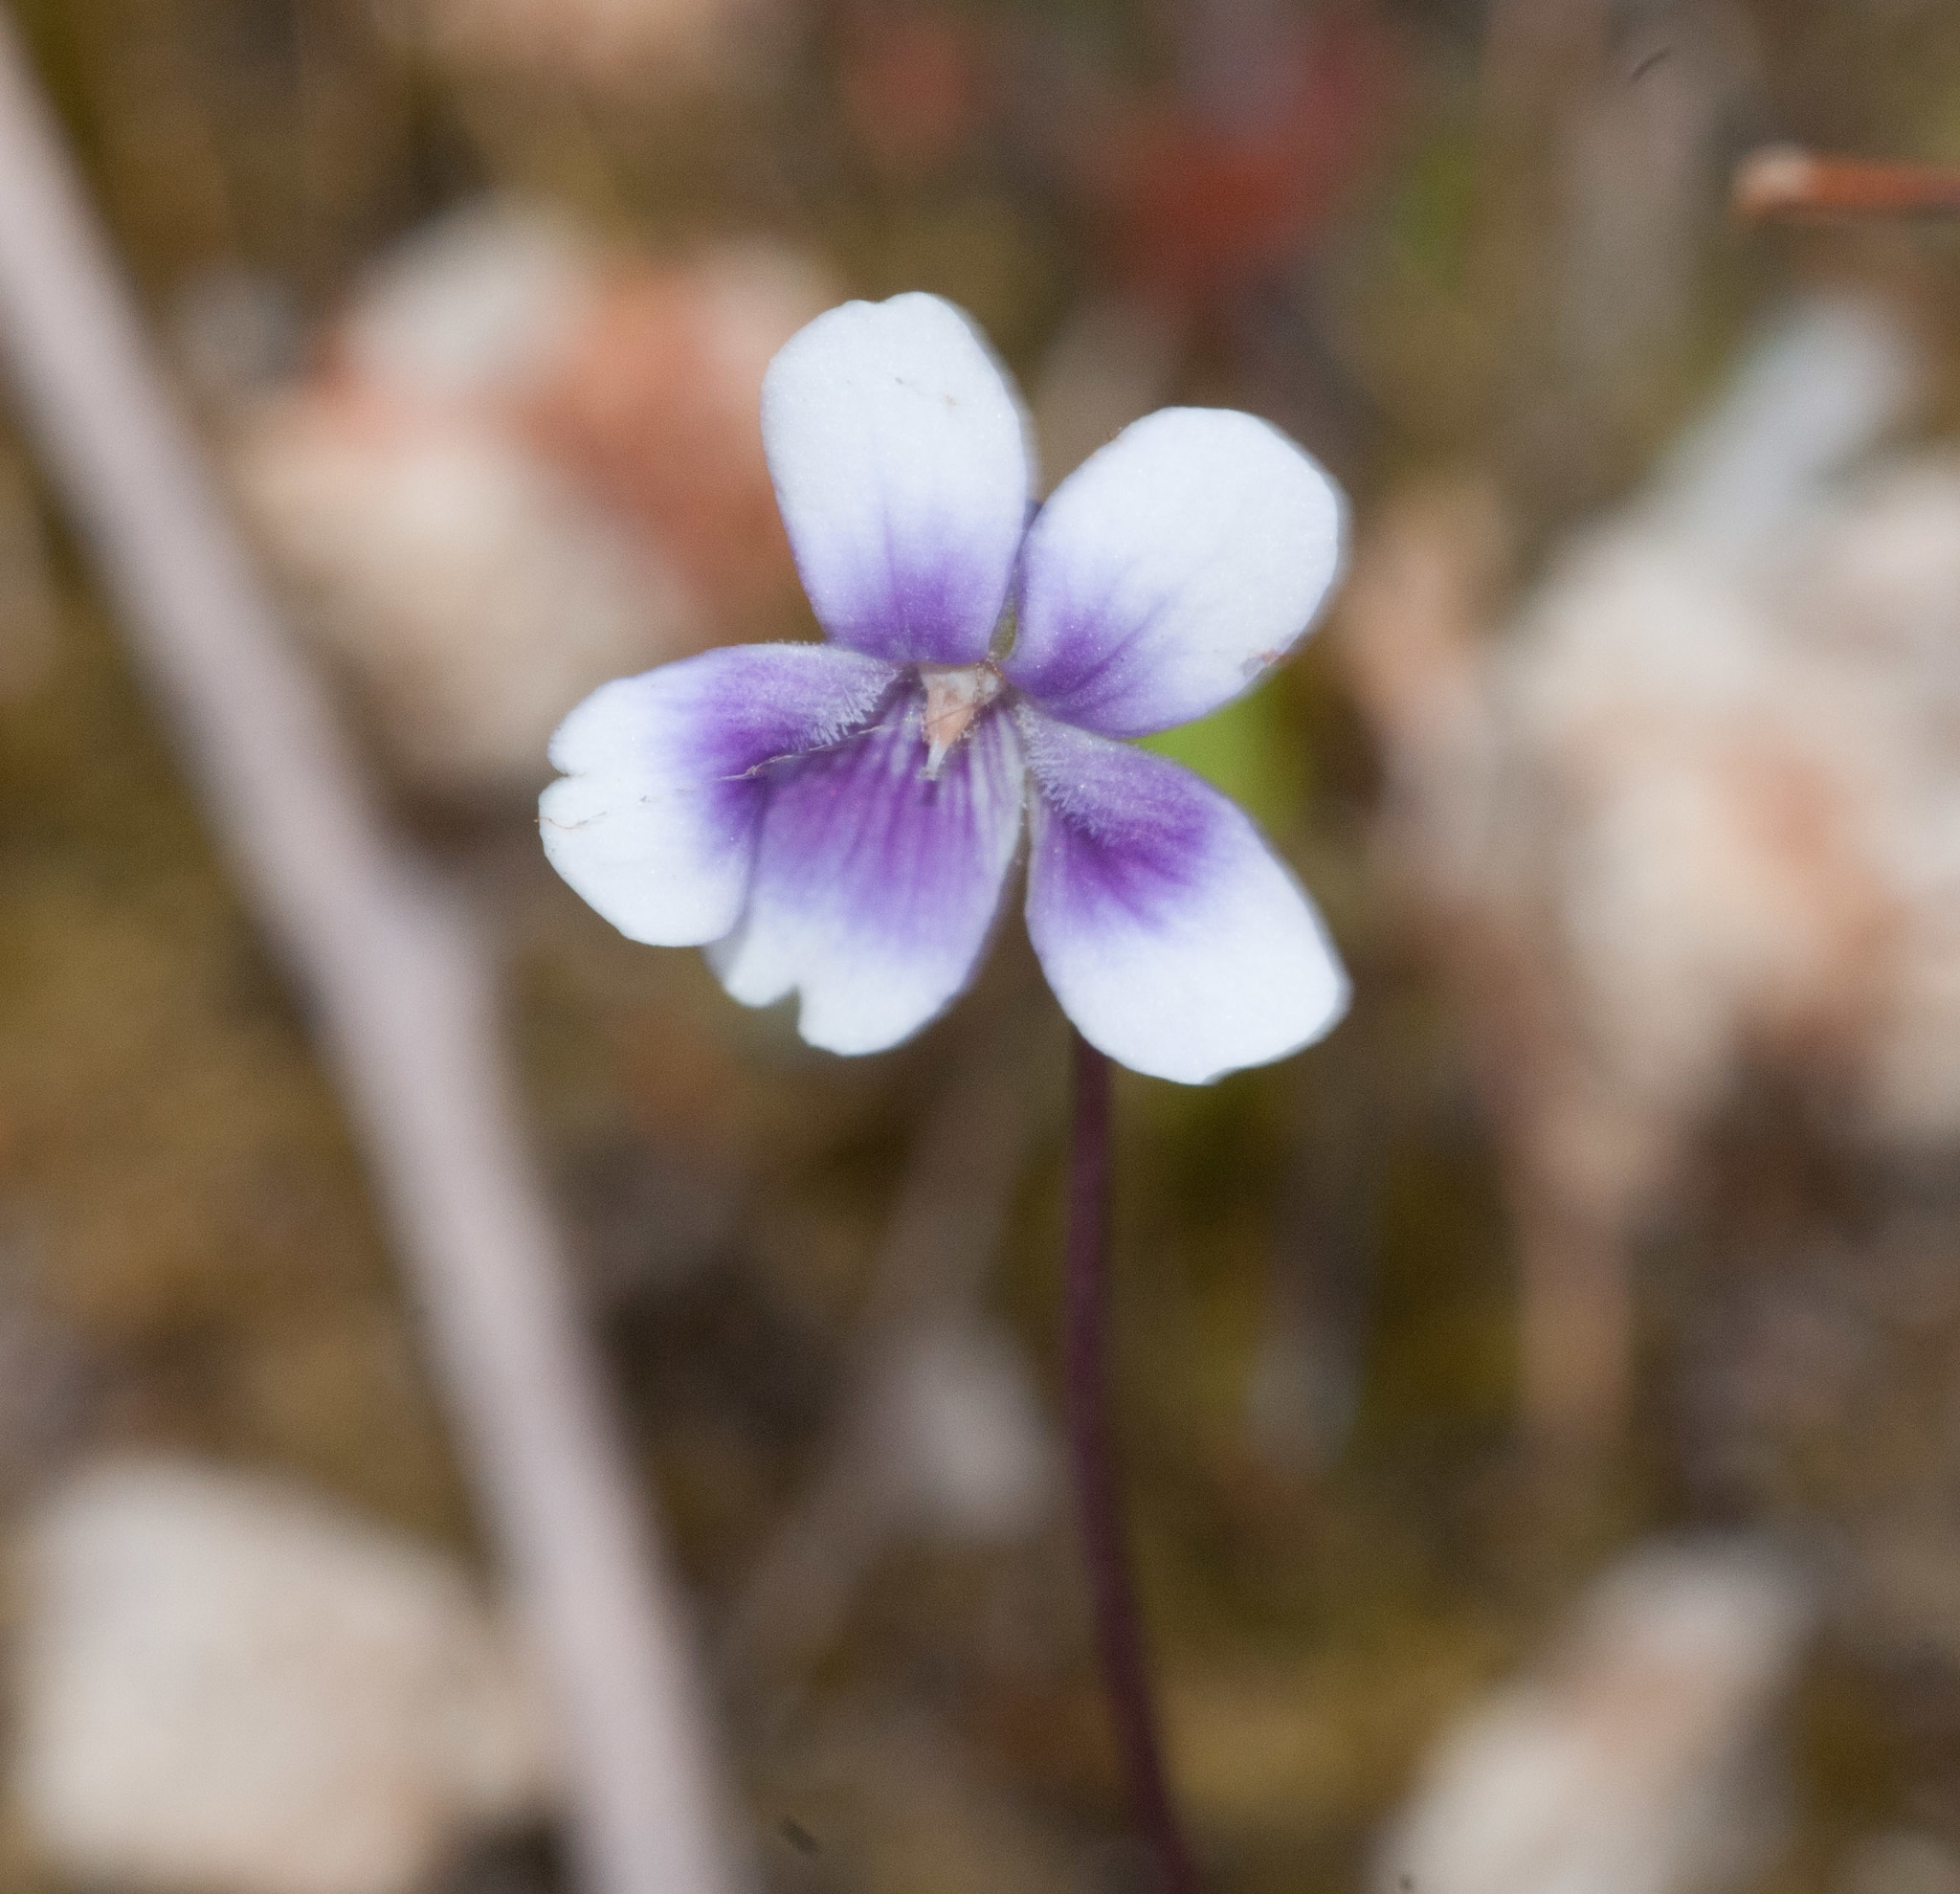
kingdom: Plantae
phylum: Tracheophyta
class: Magnoliopsida
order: Malpighiales
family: Violaceae
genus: Viola
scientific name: Viola hederacea
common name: Australian violet
